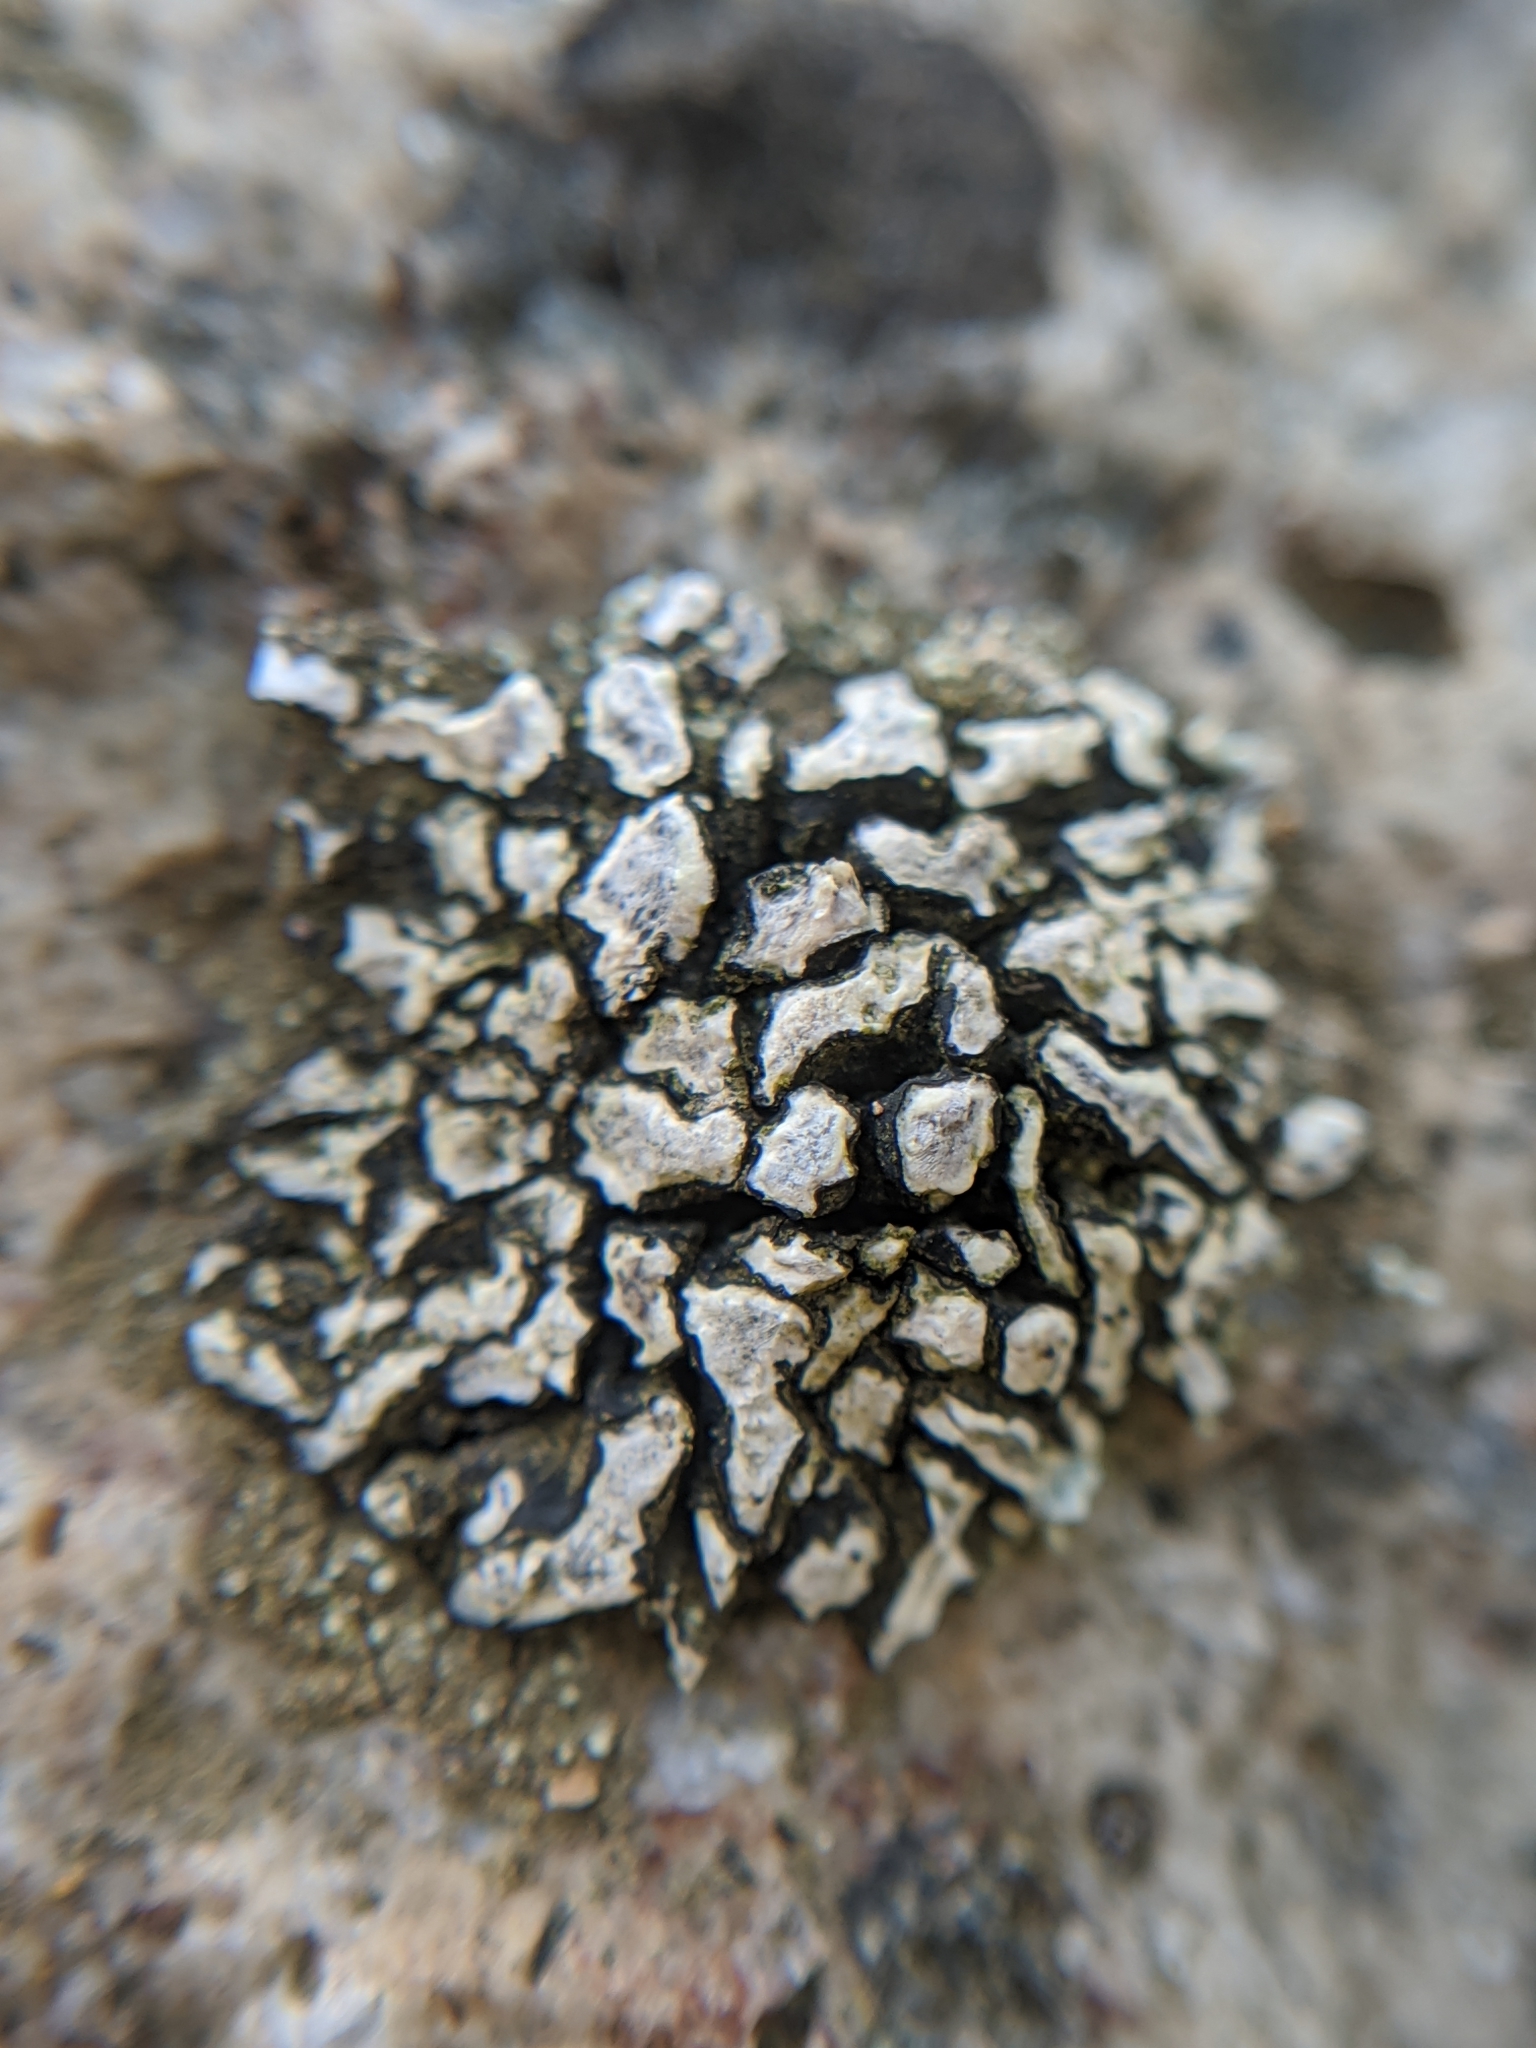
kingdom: Fungi
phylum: Ascomycota
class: Lecanoromycetes
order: Lecanorales
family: Ramalinaceae
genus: Niebla
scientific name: Niebla laevigata
